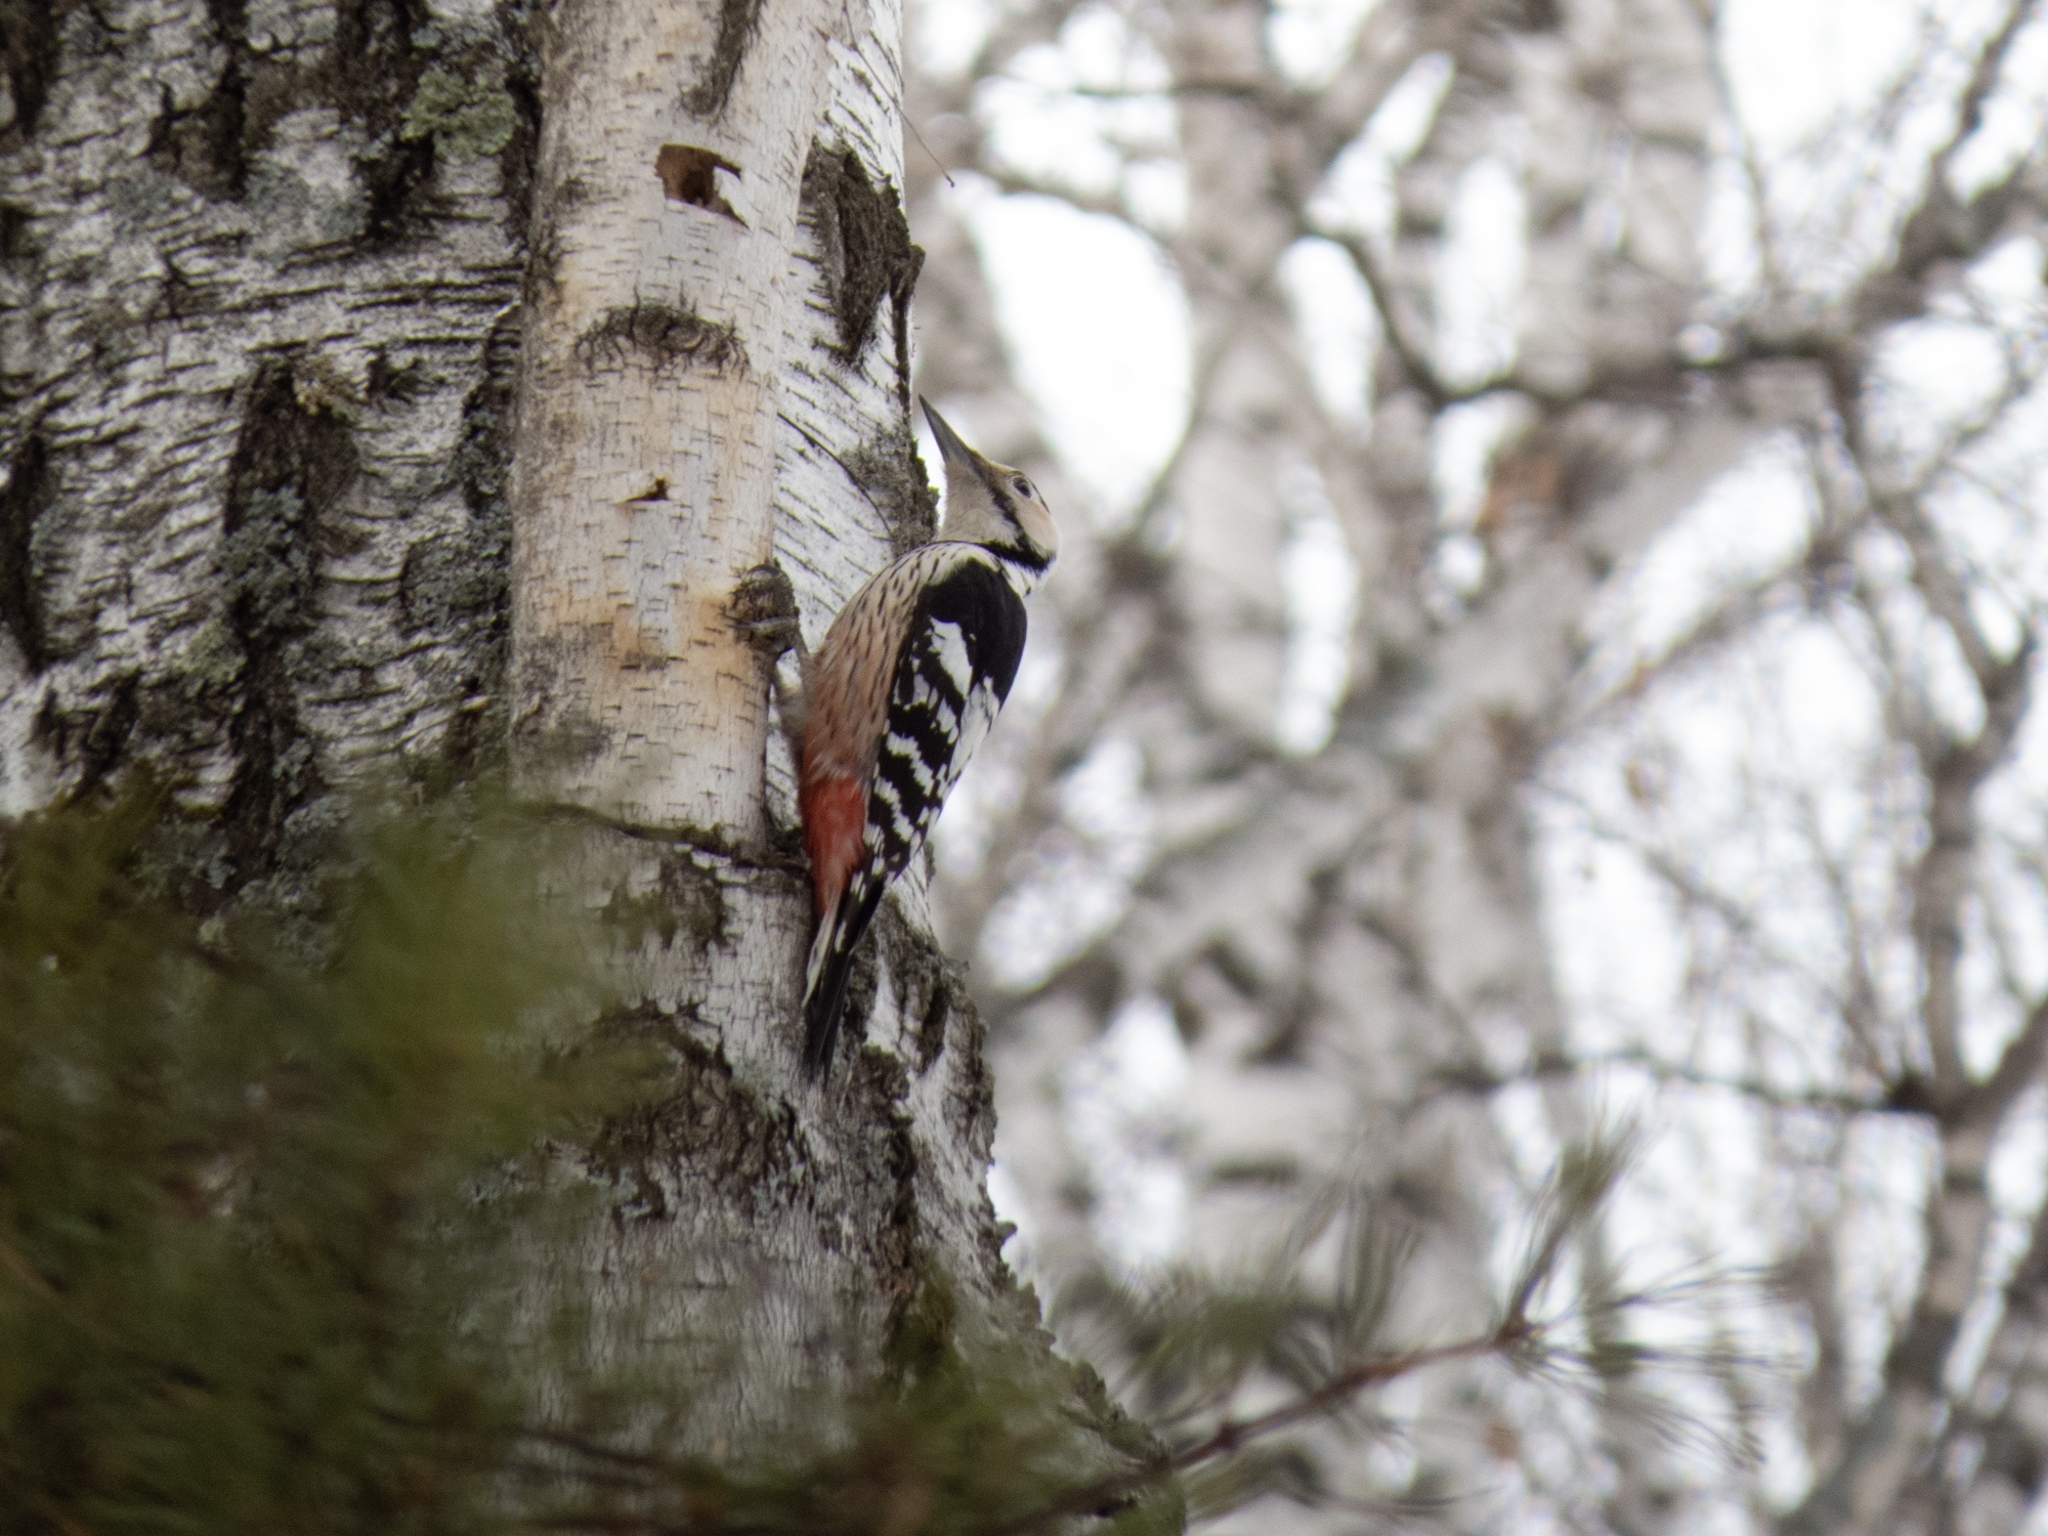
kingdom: Animalia
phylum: Chordata
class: Aves
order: Piciformes
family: Picidae
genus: Dendrocopos
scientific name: Dendrocopos leucotos
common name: White-backed woodpecker
